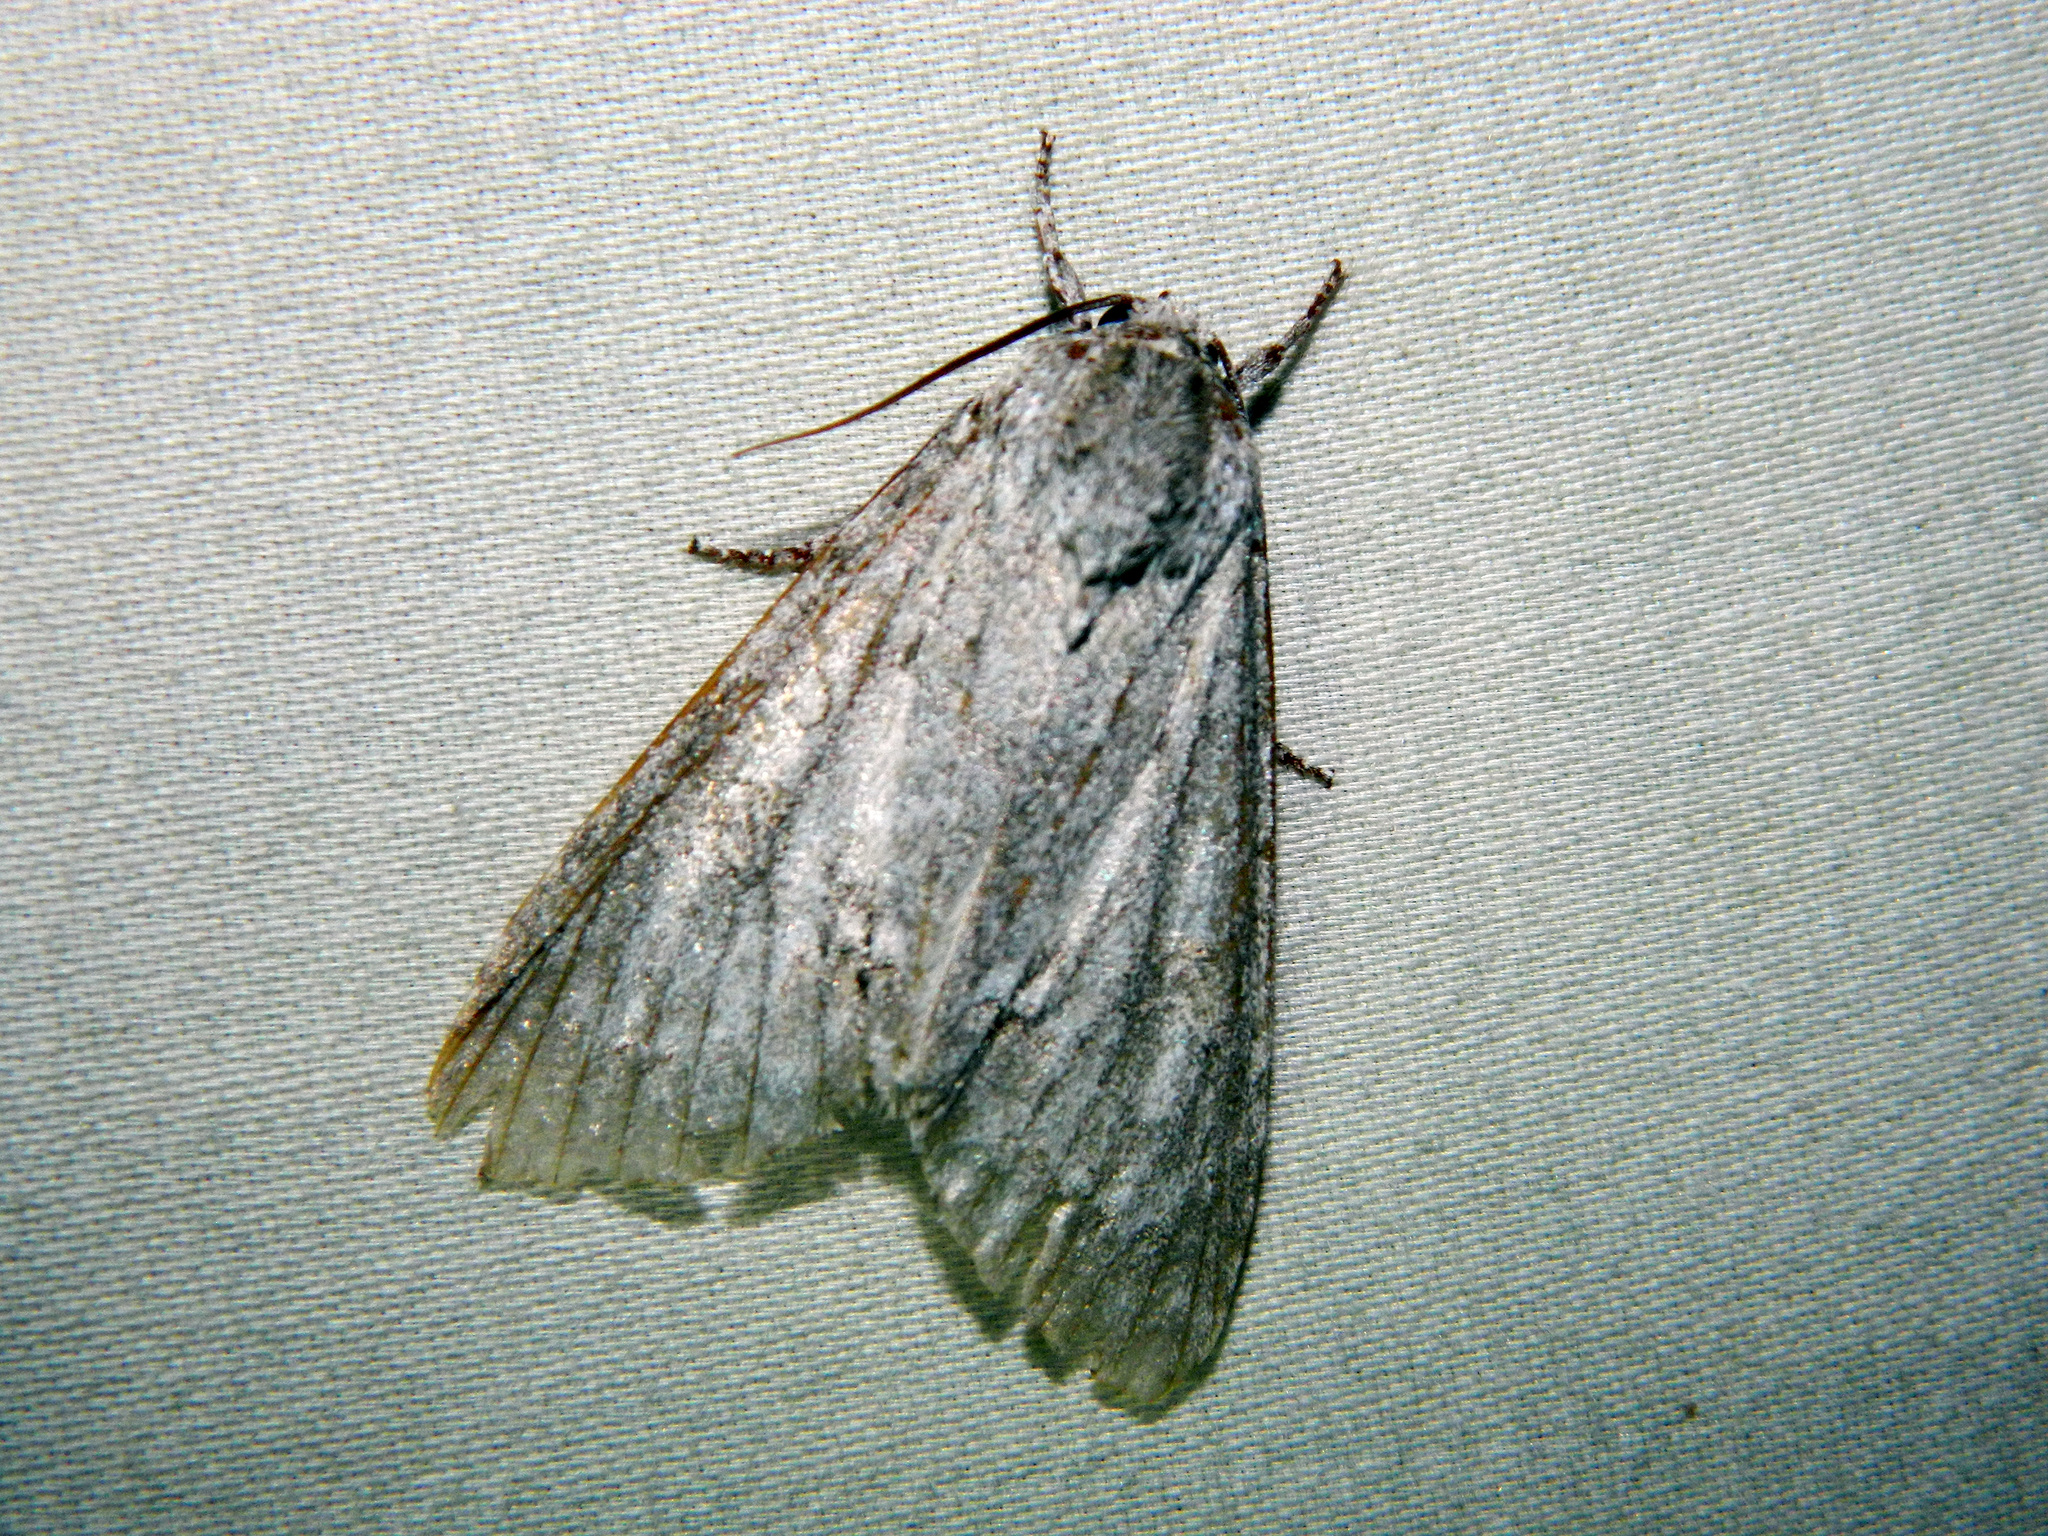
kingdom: Animalia
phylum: Arthropoda
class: Insecta
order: Lepidoptera
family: Noctuidae
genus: Acronicta
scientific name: Acronicta americana
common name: American dagger
